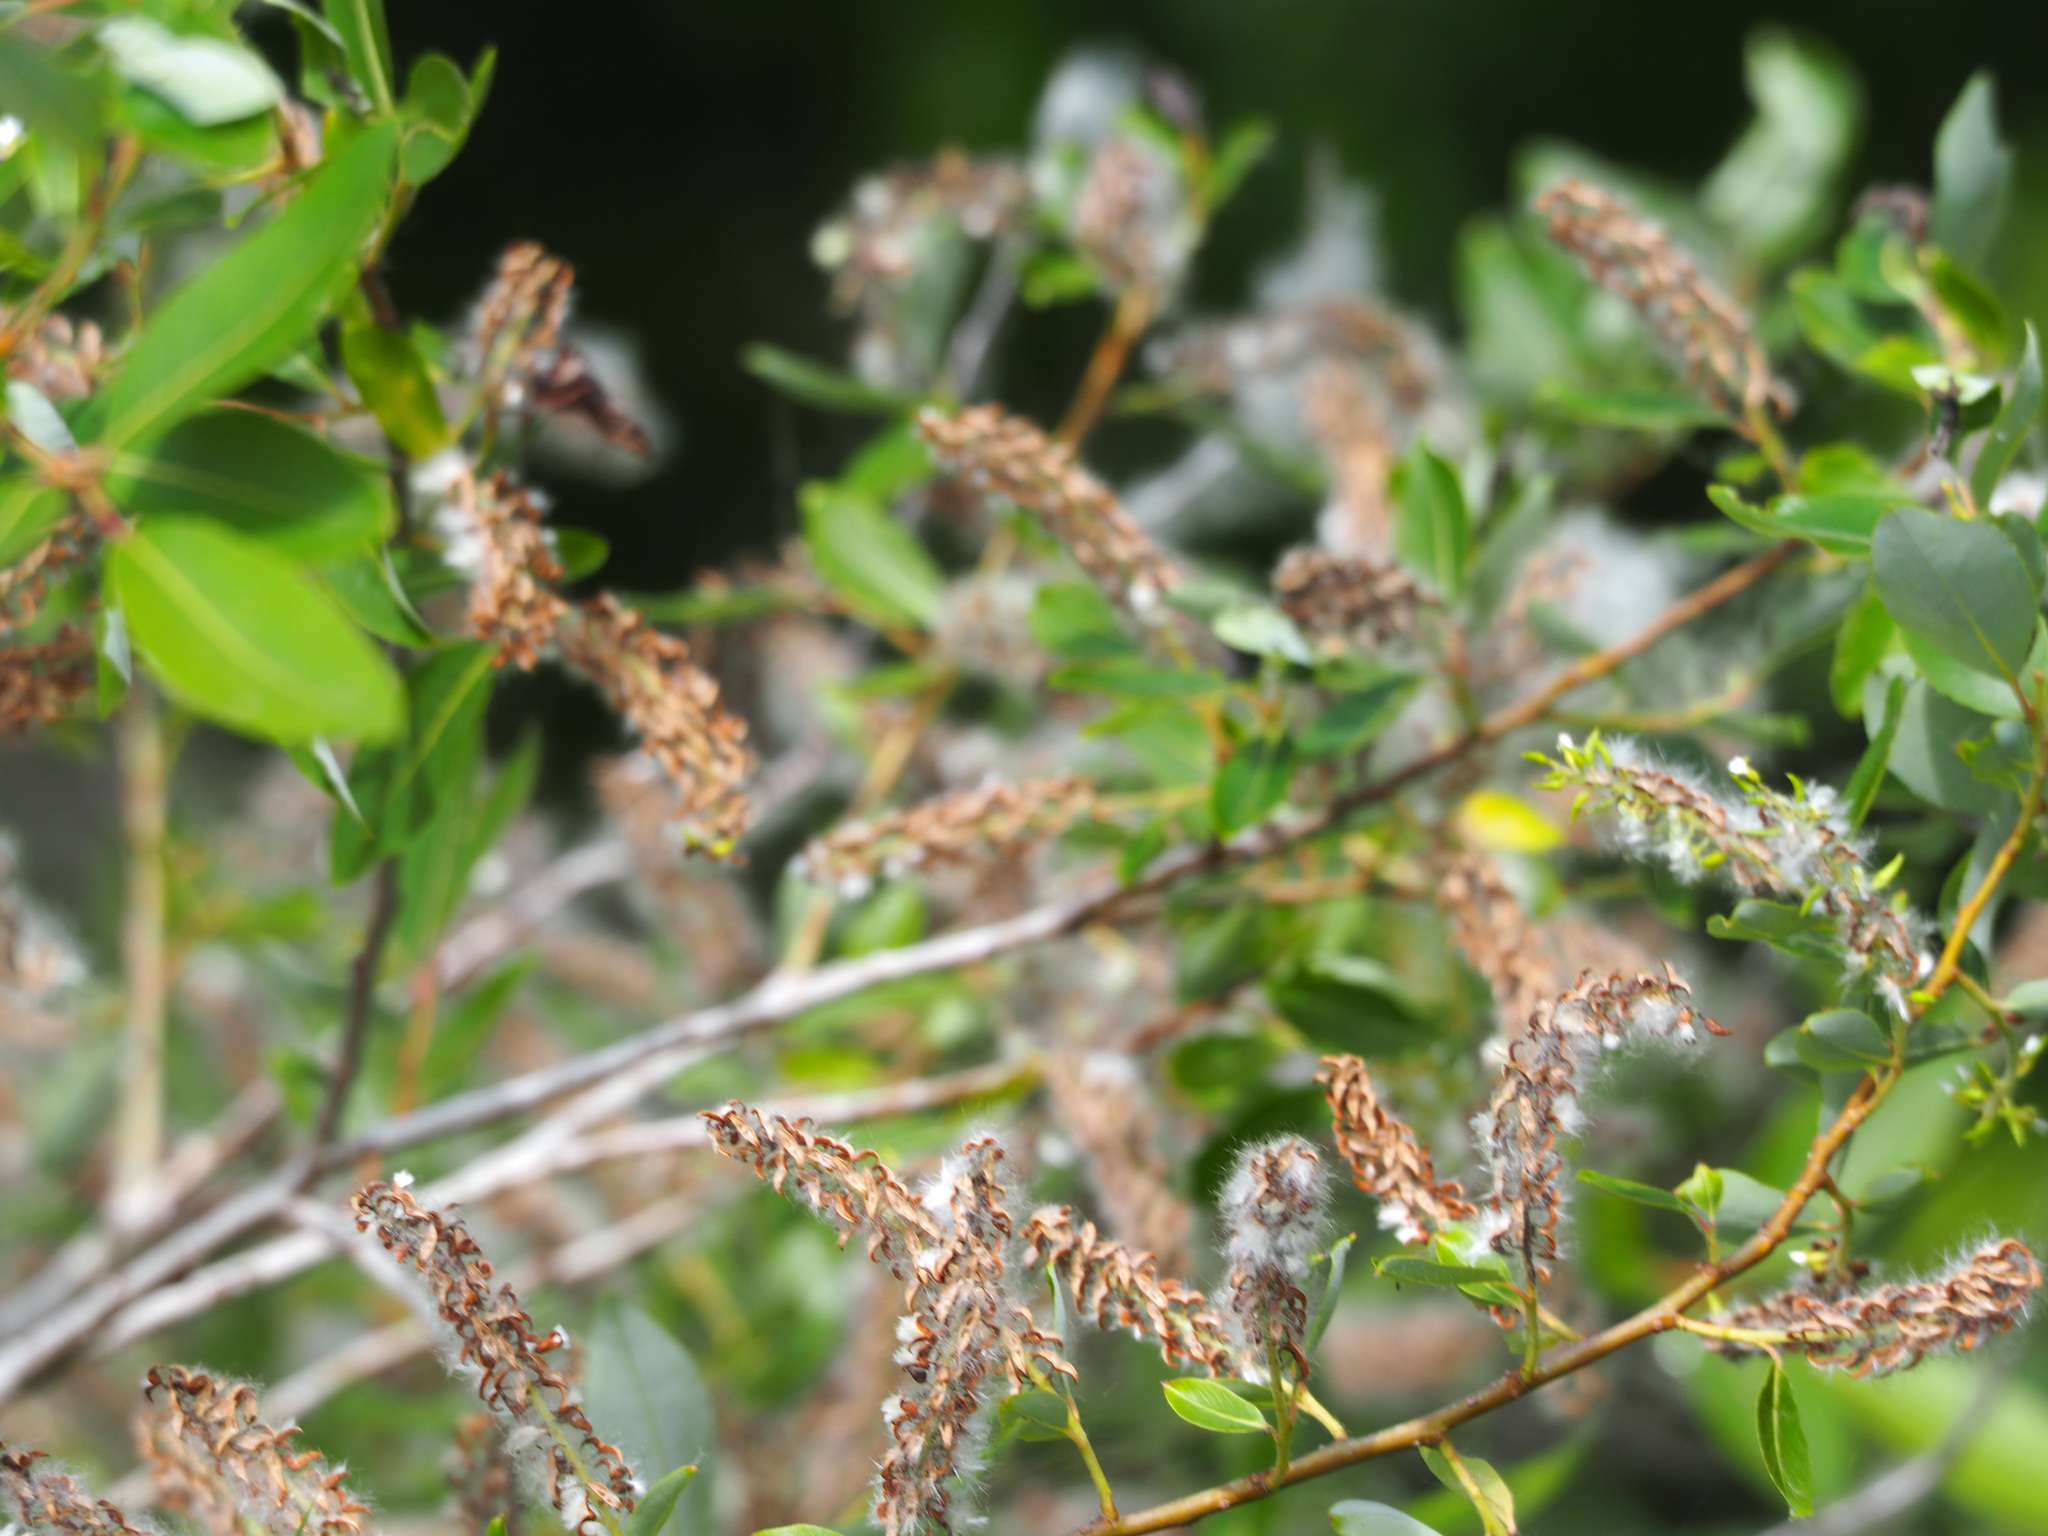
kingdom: Plantae
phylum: Tracheophyta
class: Magnoliopsida
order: Malpighiales
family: Salicaceae
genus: Salix
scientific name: Salix mesnyi
